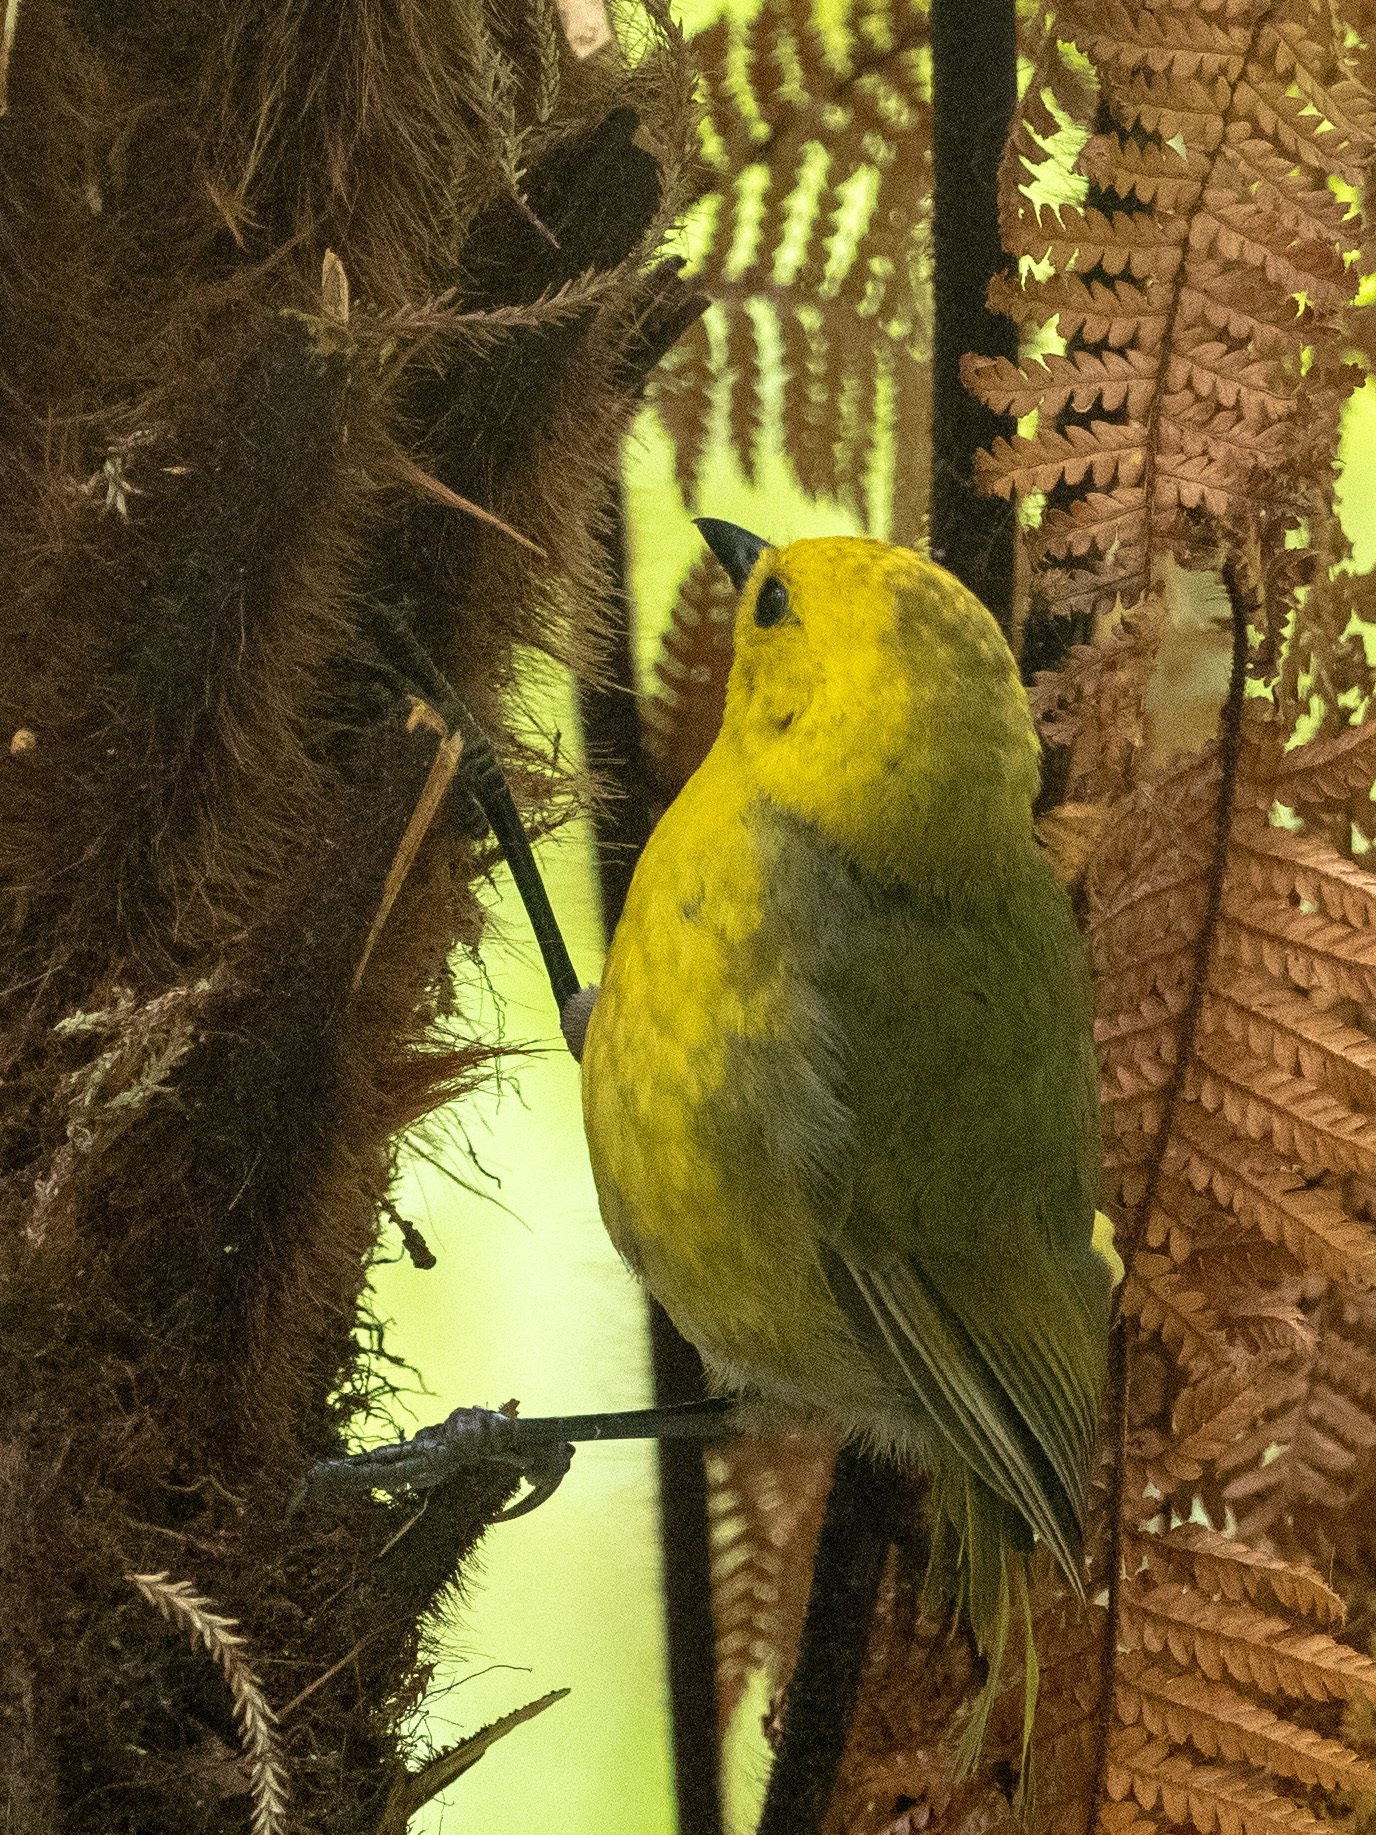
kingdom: Animalia
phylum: Chordata
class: Aves
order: Passeriformes
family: Acanthizidae
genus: Mohoua
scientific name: Mohoua ochrocephala
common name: Yellowhead
